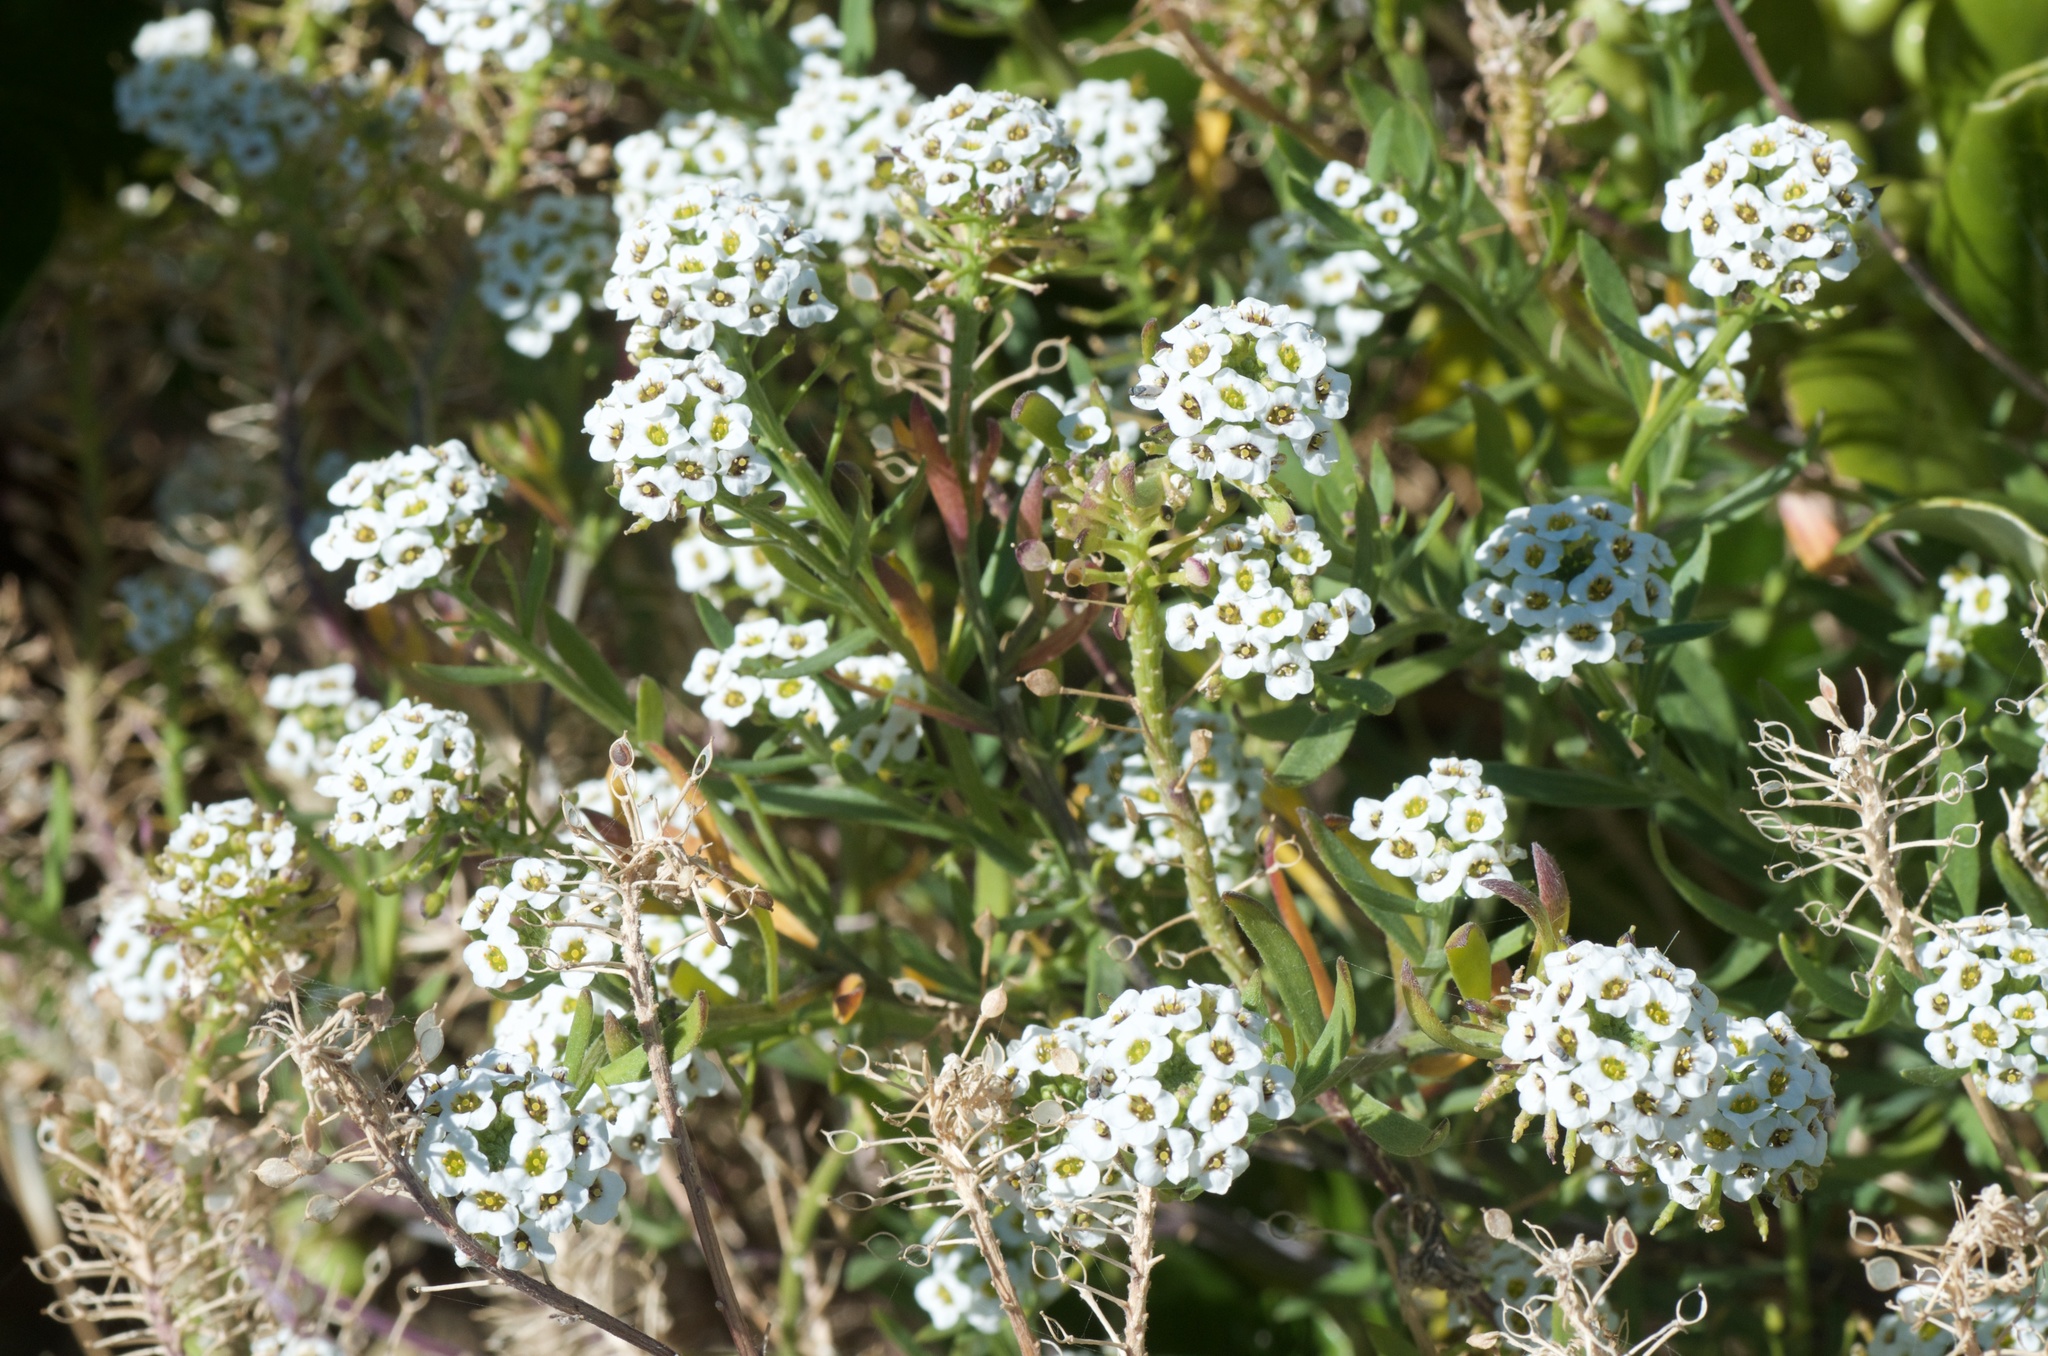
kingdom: Plantae
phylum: Tracheophyta
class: Magnoliopsida
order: Brassicales
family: Brassicaceae
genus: Lobularia
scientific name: Lobularia maritima
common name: Sweet alison
